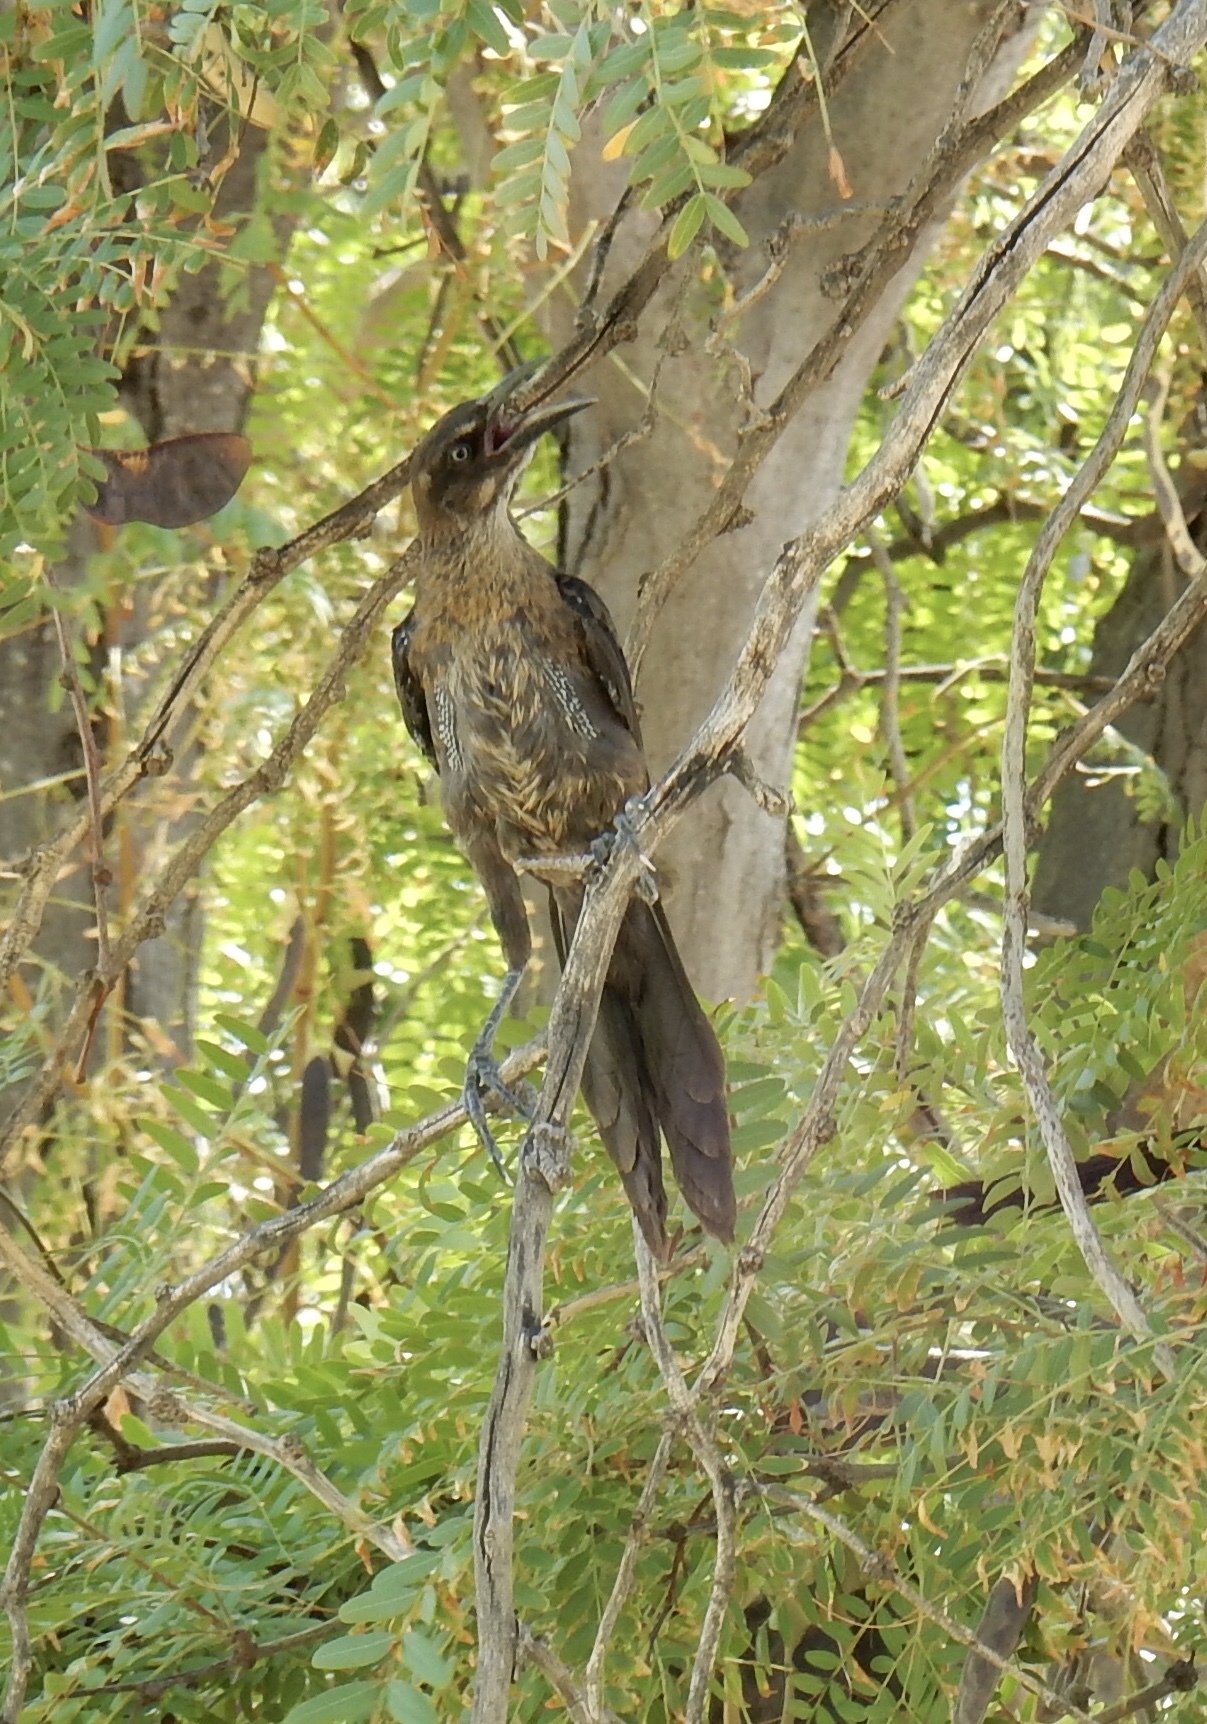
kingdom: Animalia
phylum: Chordata
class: Aves
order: Passeriformes
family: Icteridae
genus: Quiscalus
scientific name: Quiscalus mexicanus
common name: Great-tailed grackle
